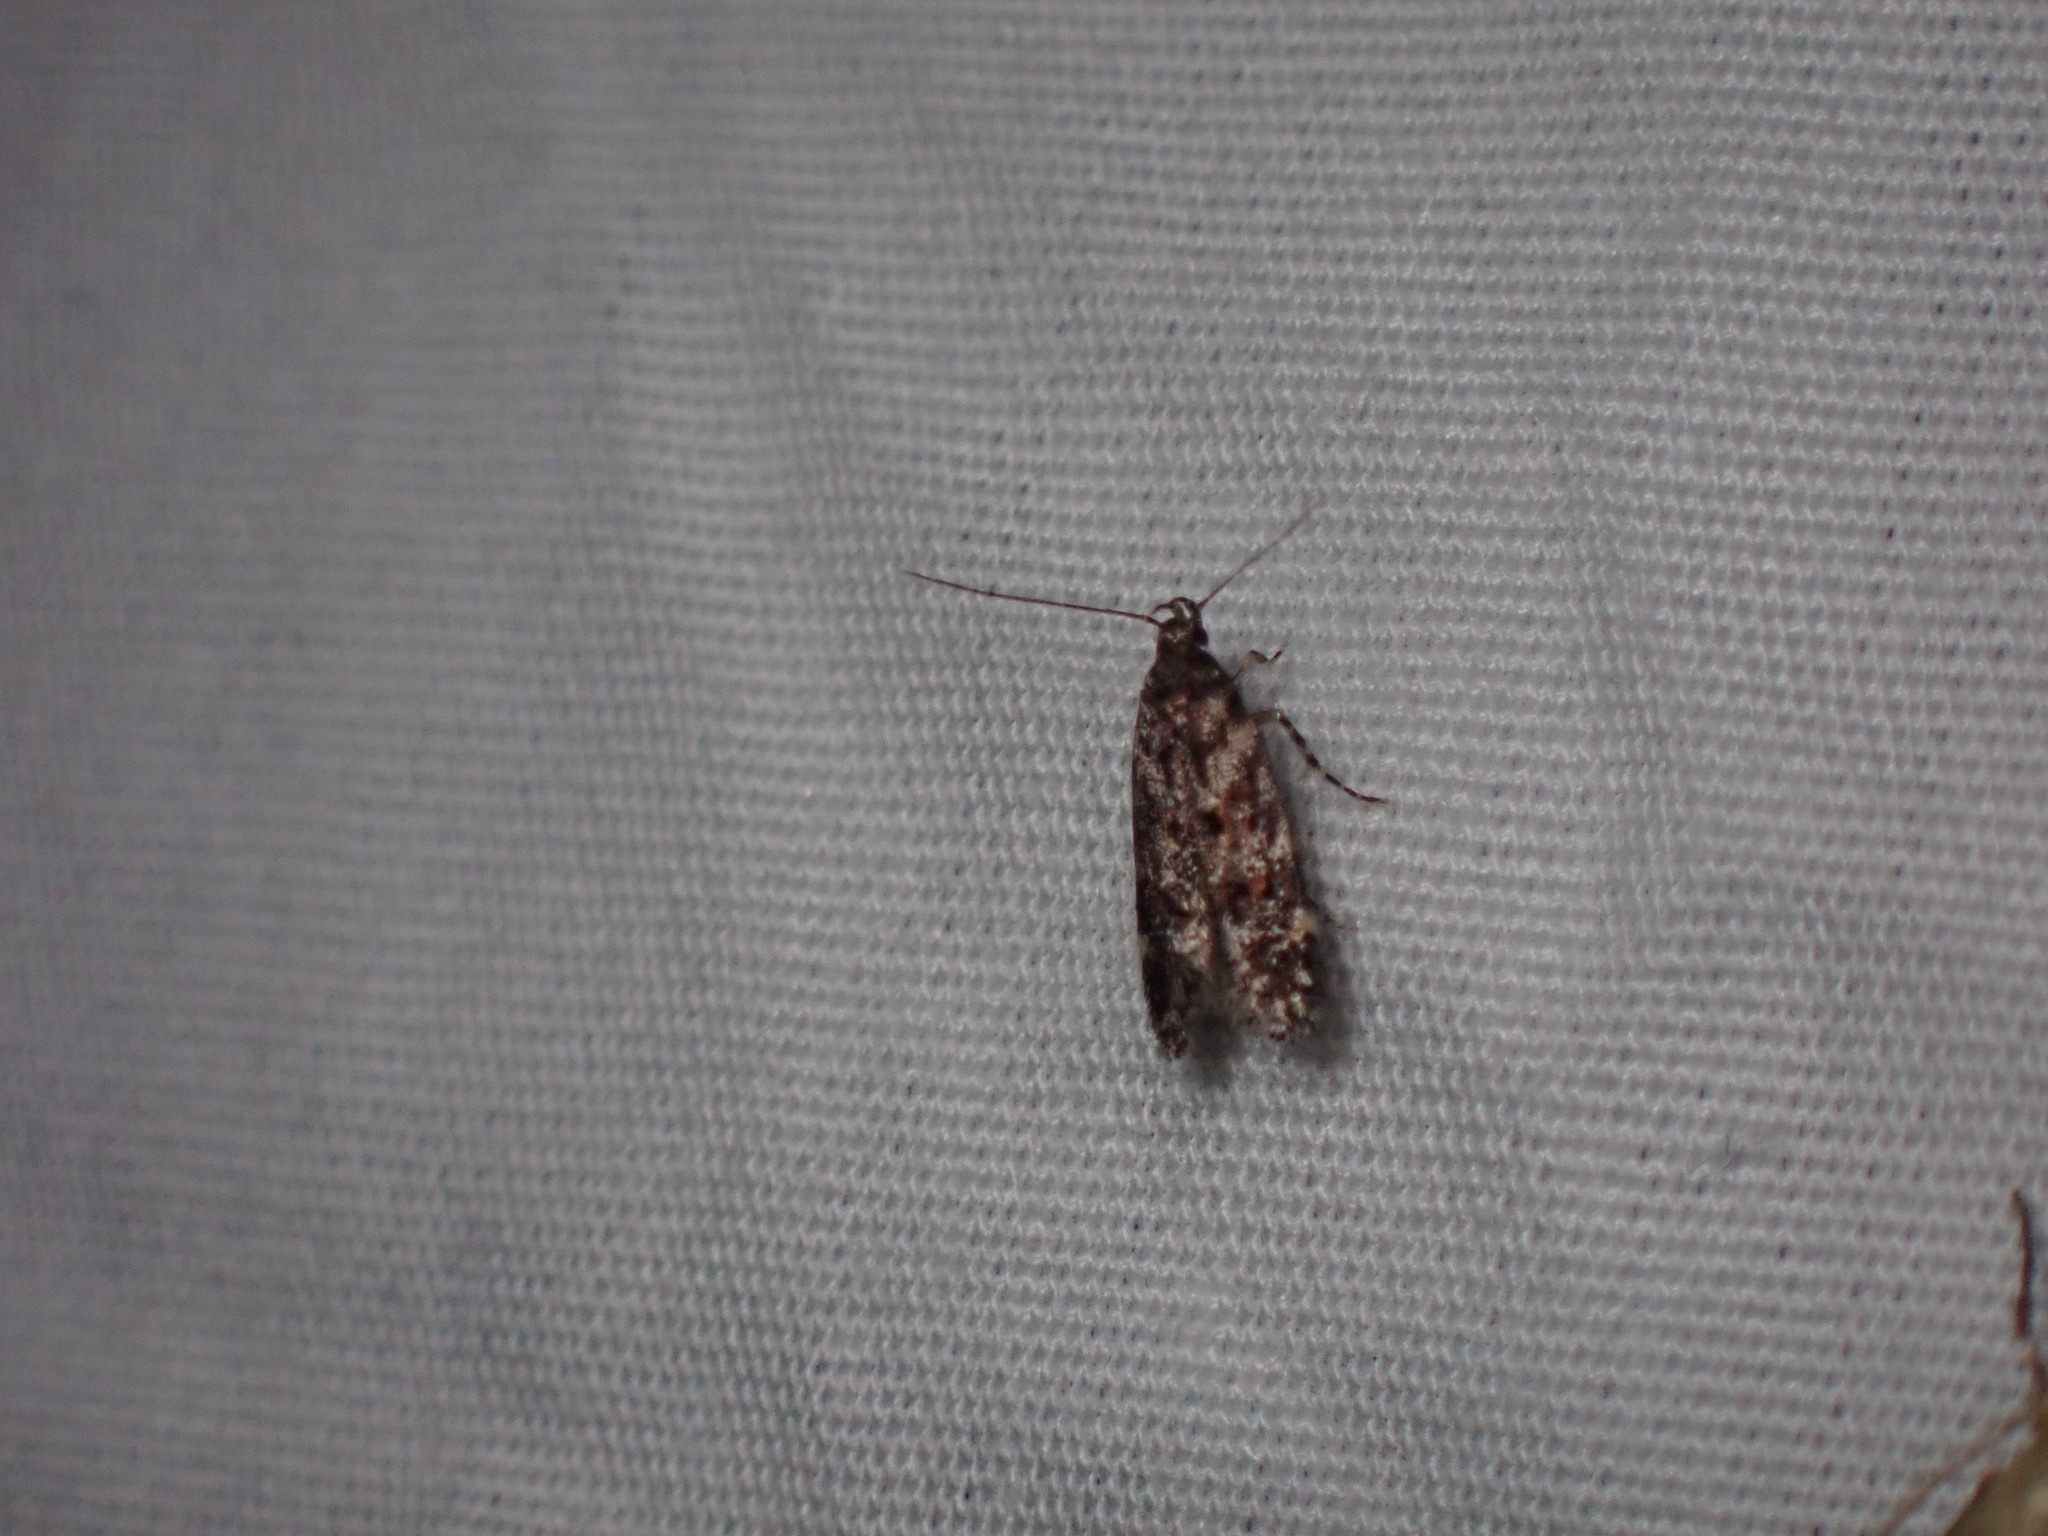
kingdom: Animalia
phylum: Arthropoda
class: Insecta
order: Lepidoptera
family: Gelechiidae
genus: Chionodes
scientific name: Chionodes fuscomaculella
